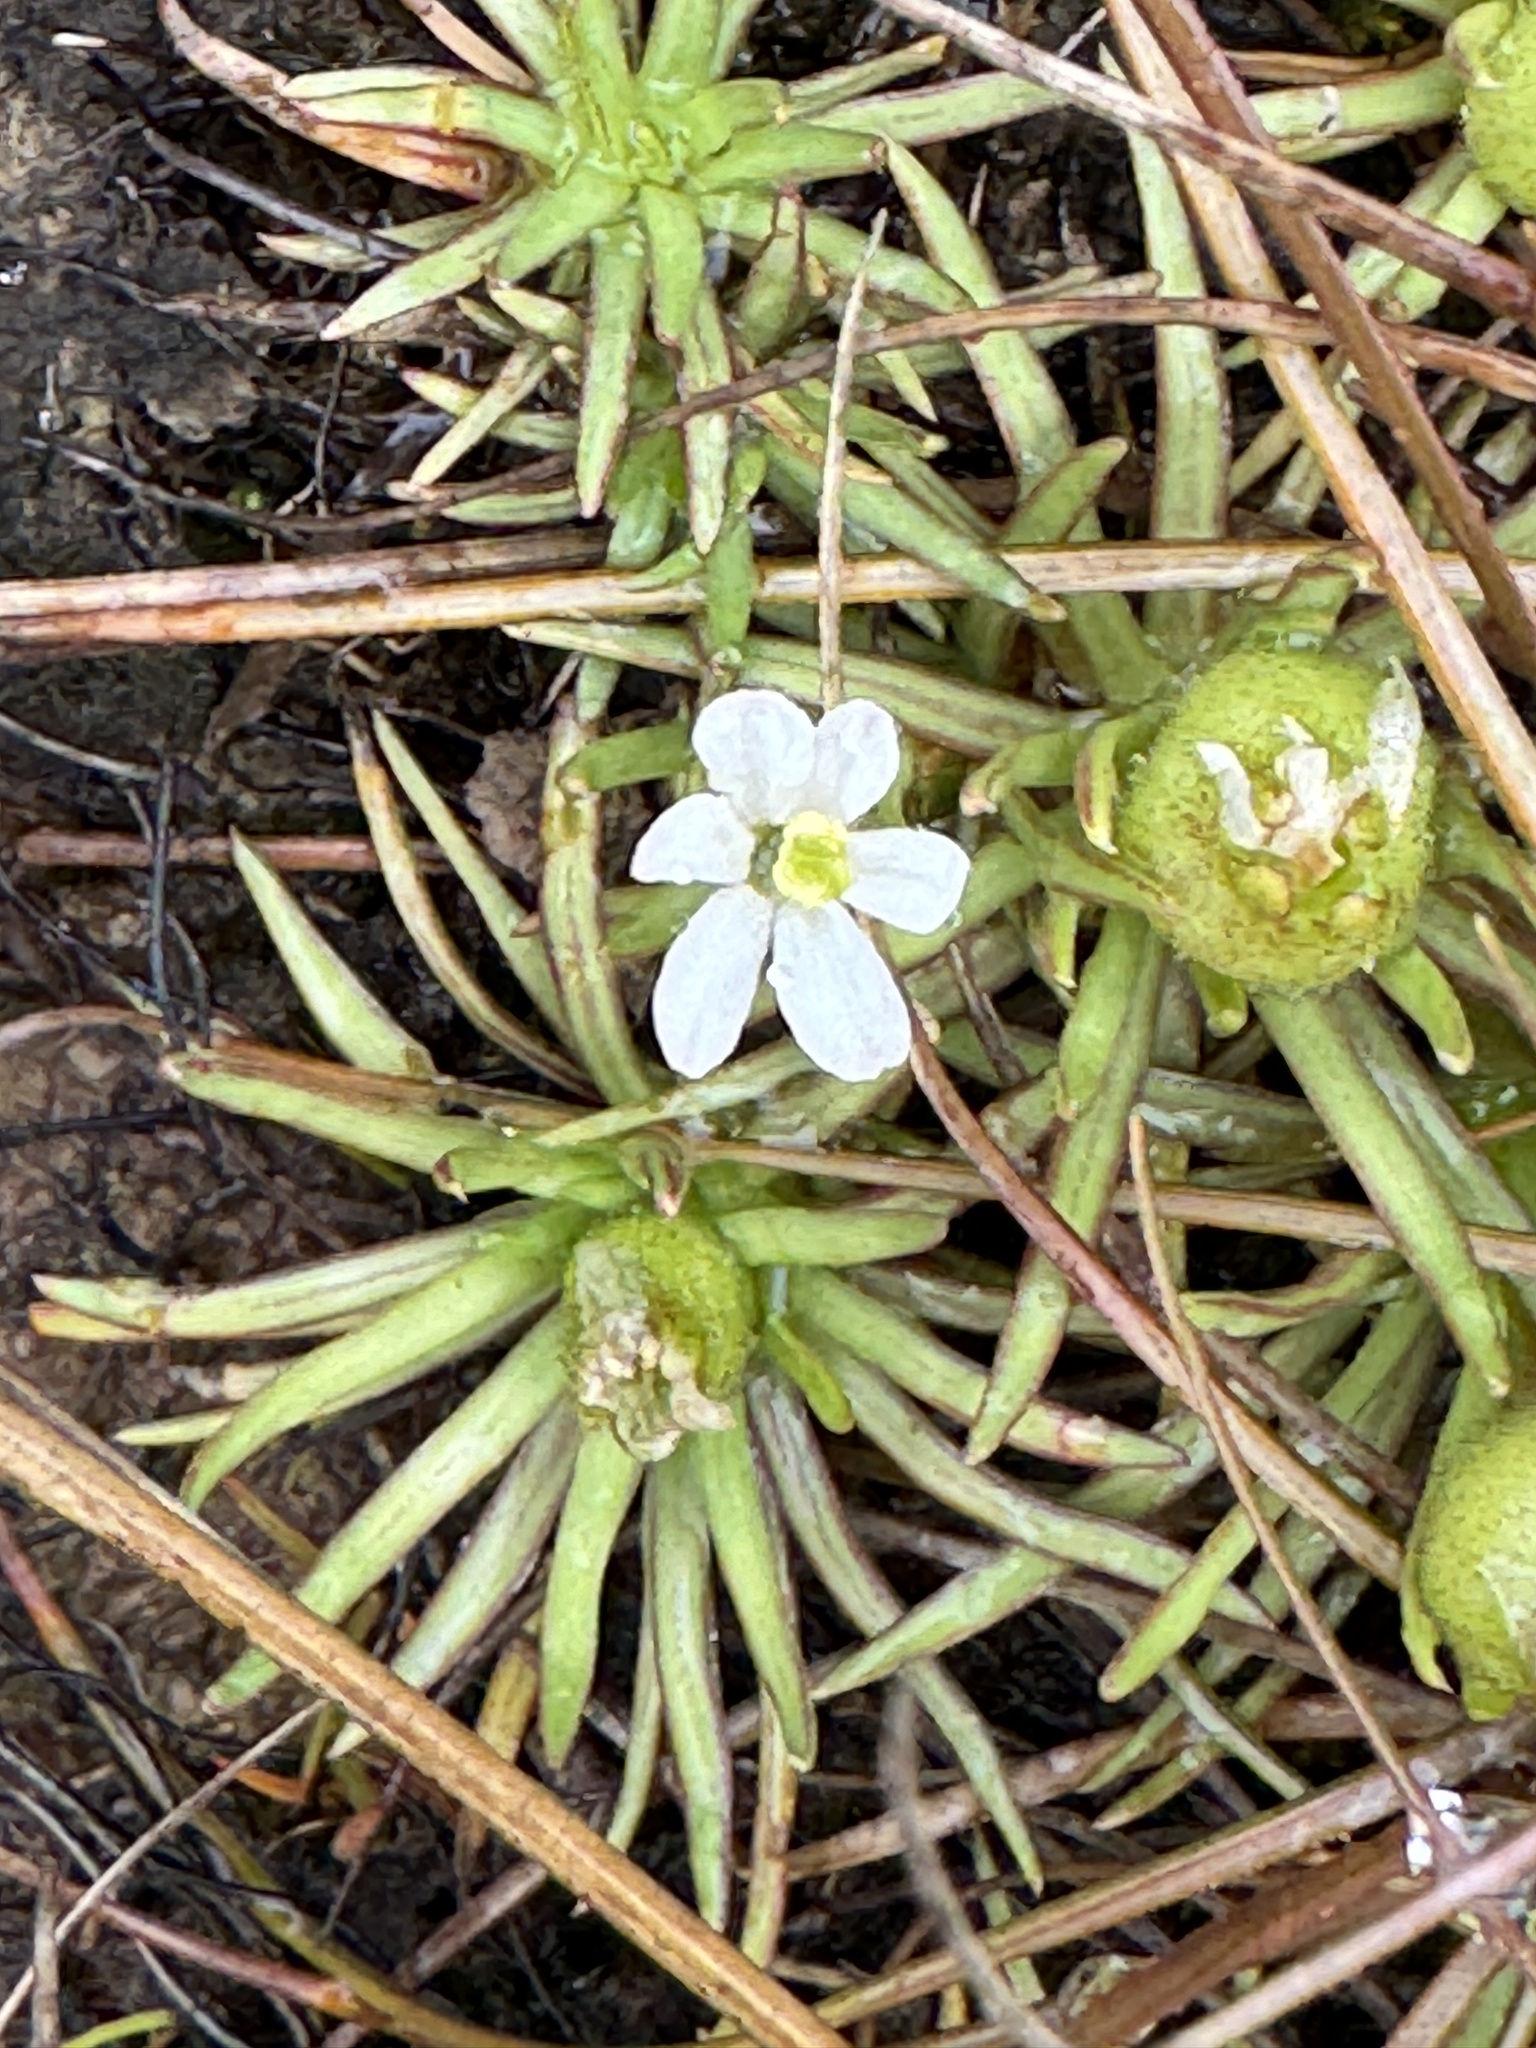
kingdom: Plantae
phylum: Tracheophyta
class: Magnoliopsida
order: Asterales
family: Stylidiaceae
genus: Oreostylidium
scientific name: Oreostylidium subulatum
